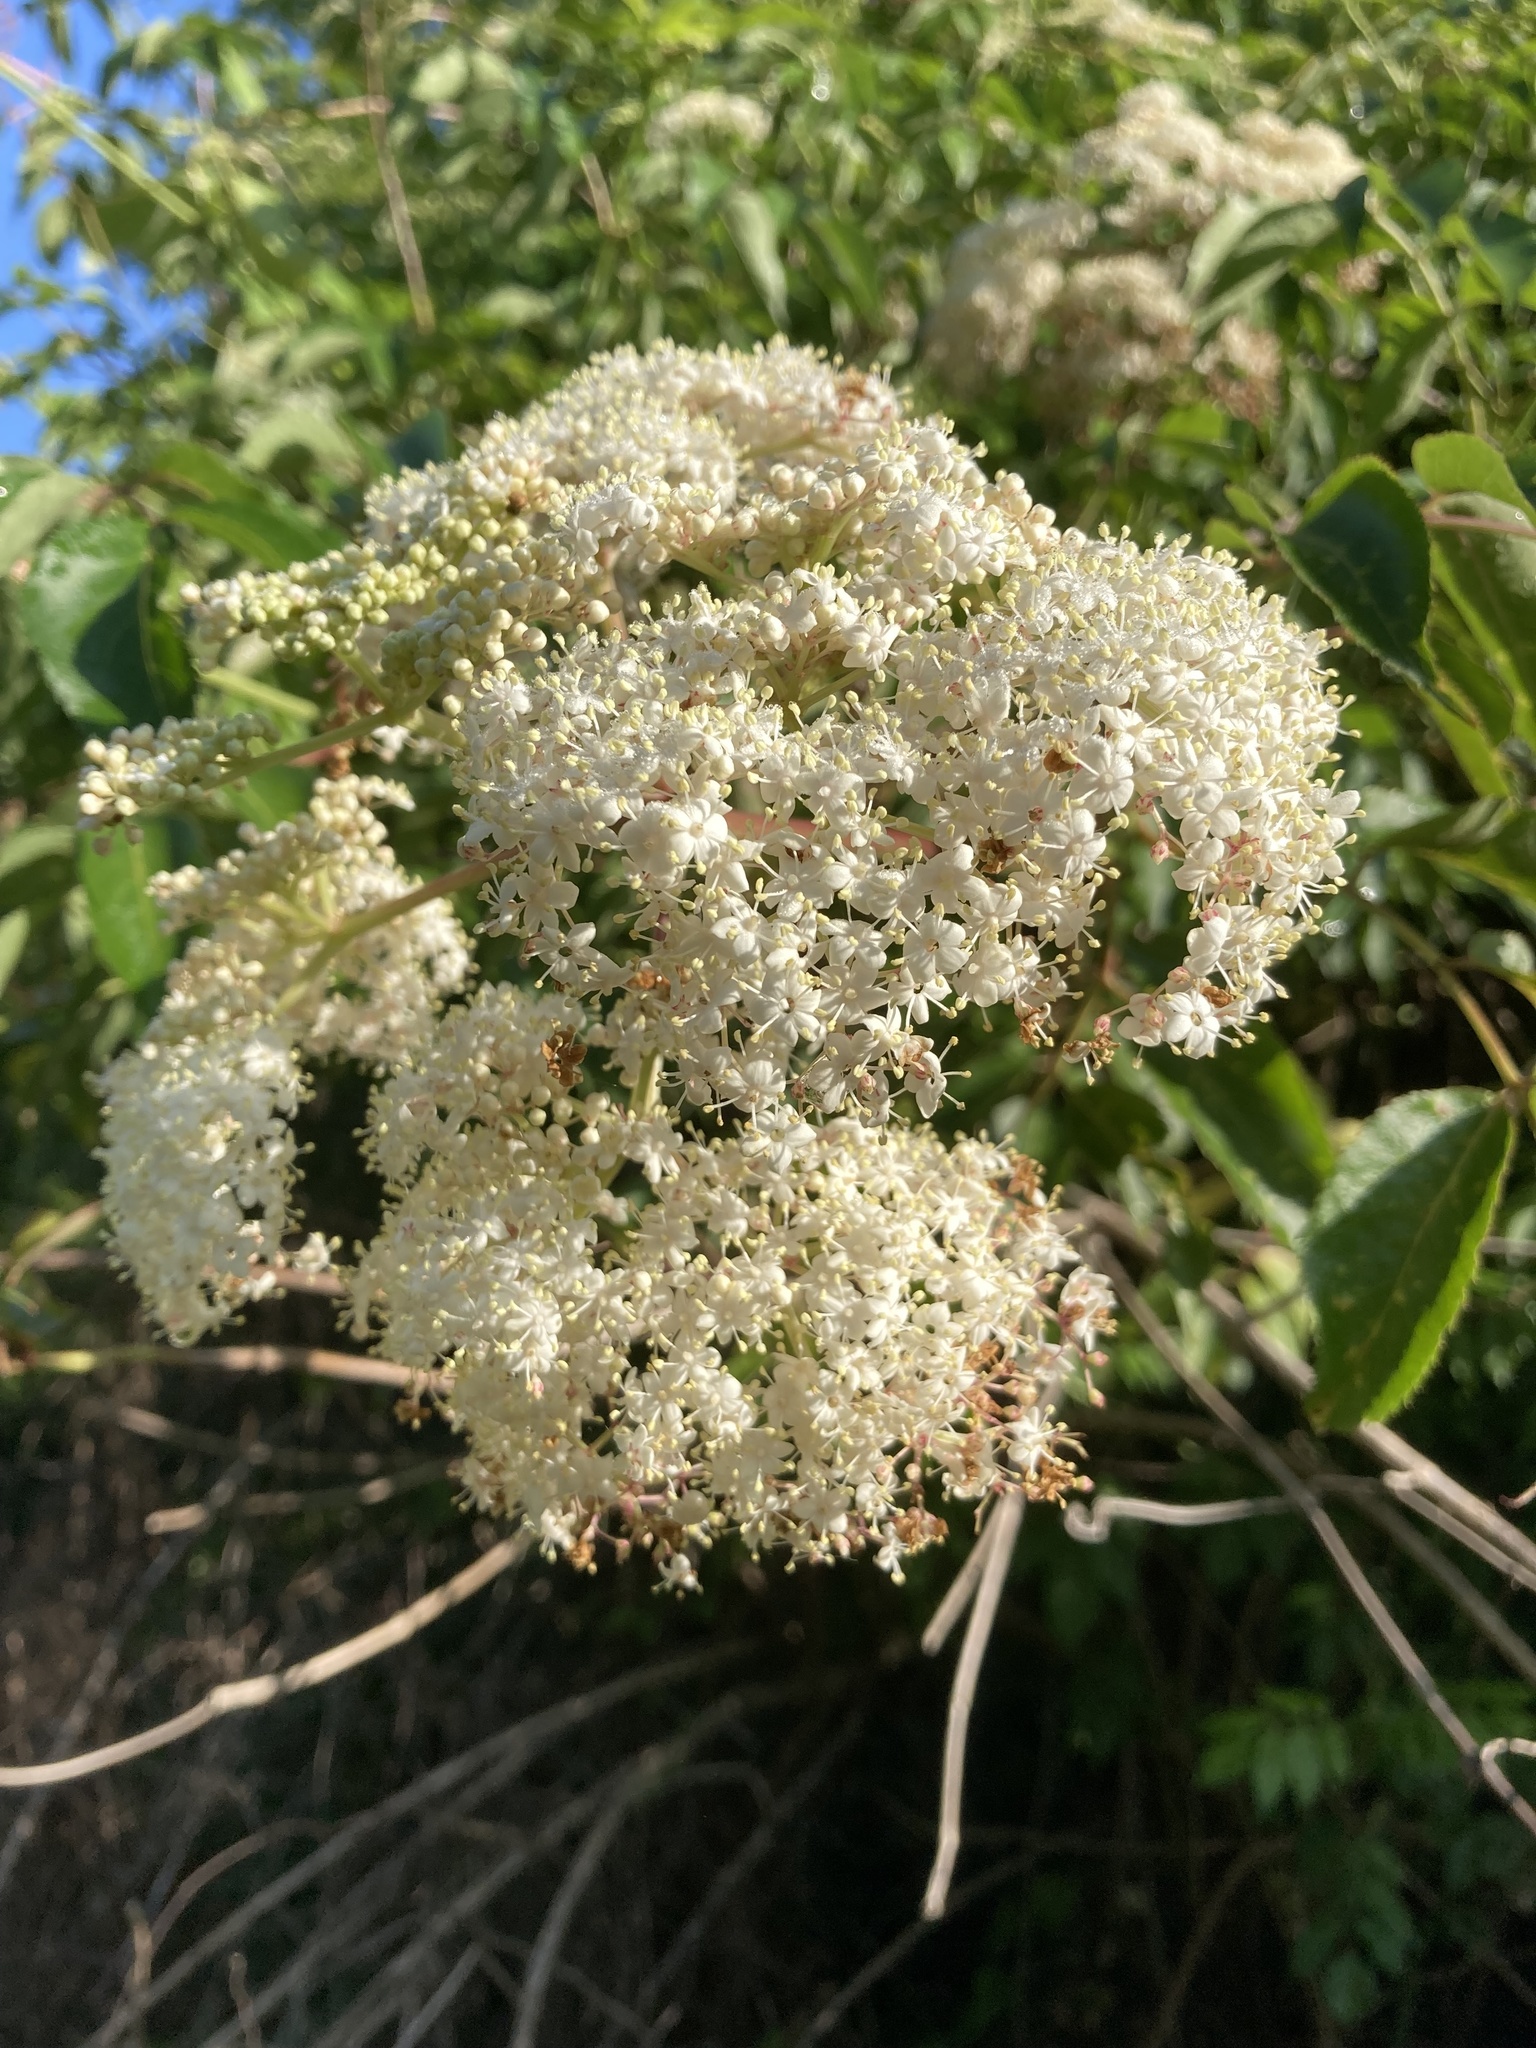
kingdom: Plantae
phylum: Tracheophyta
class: Magnoliopsida
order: Dipsacales
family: Viburnaceae
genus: Sambucus
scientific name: Sambucus canadensis
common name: American elder
